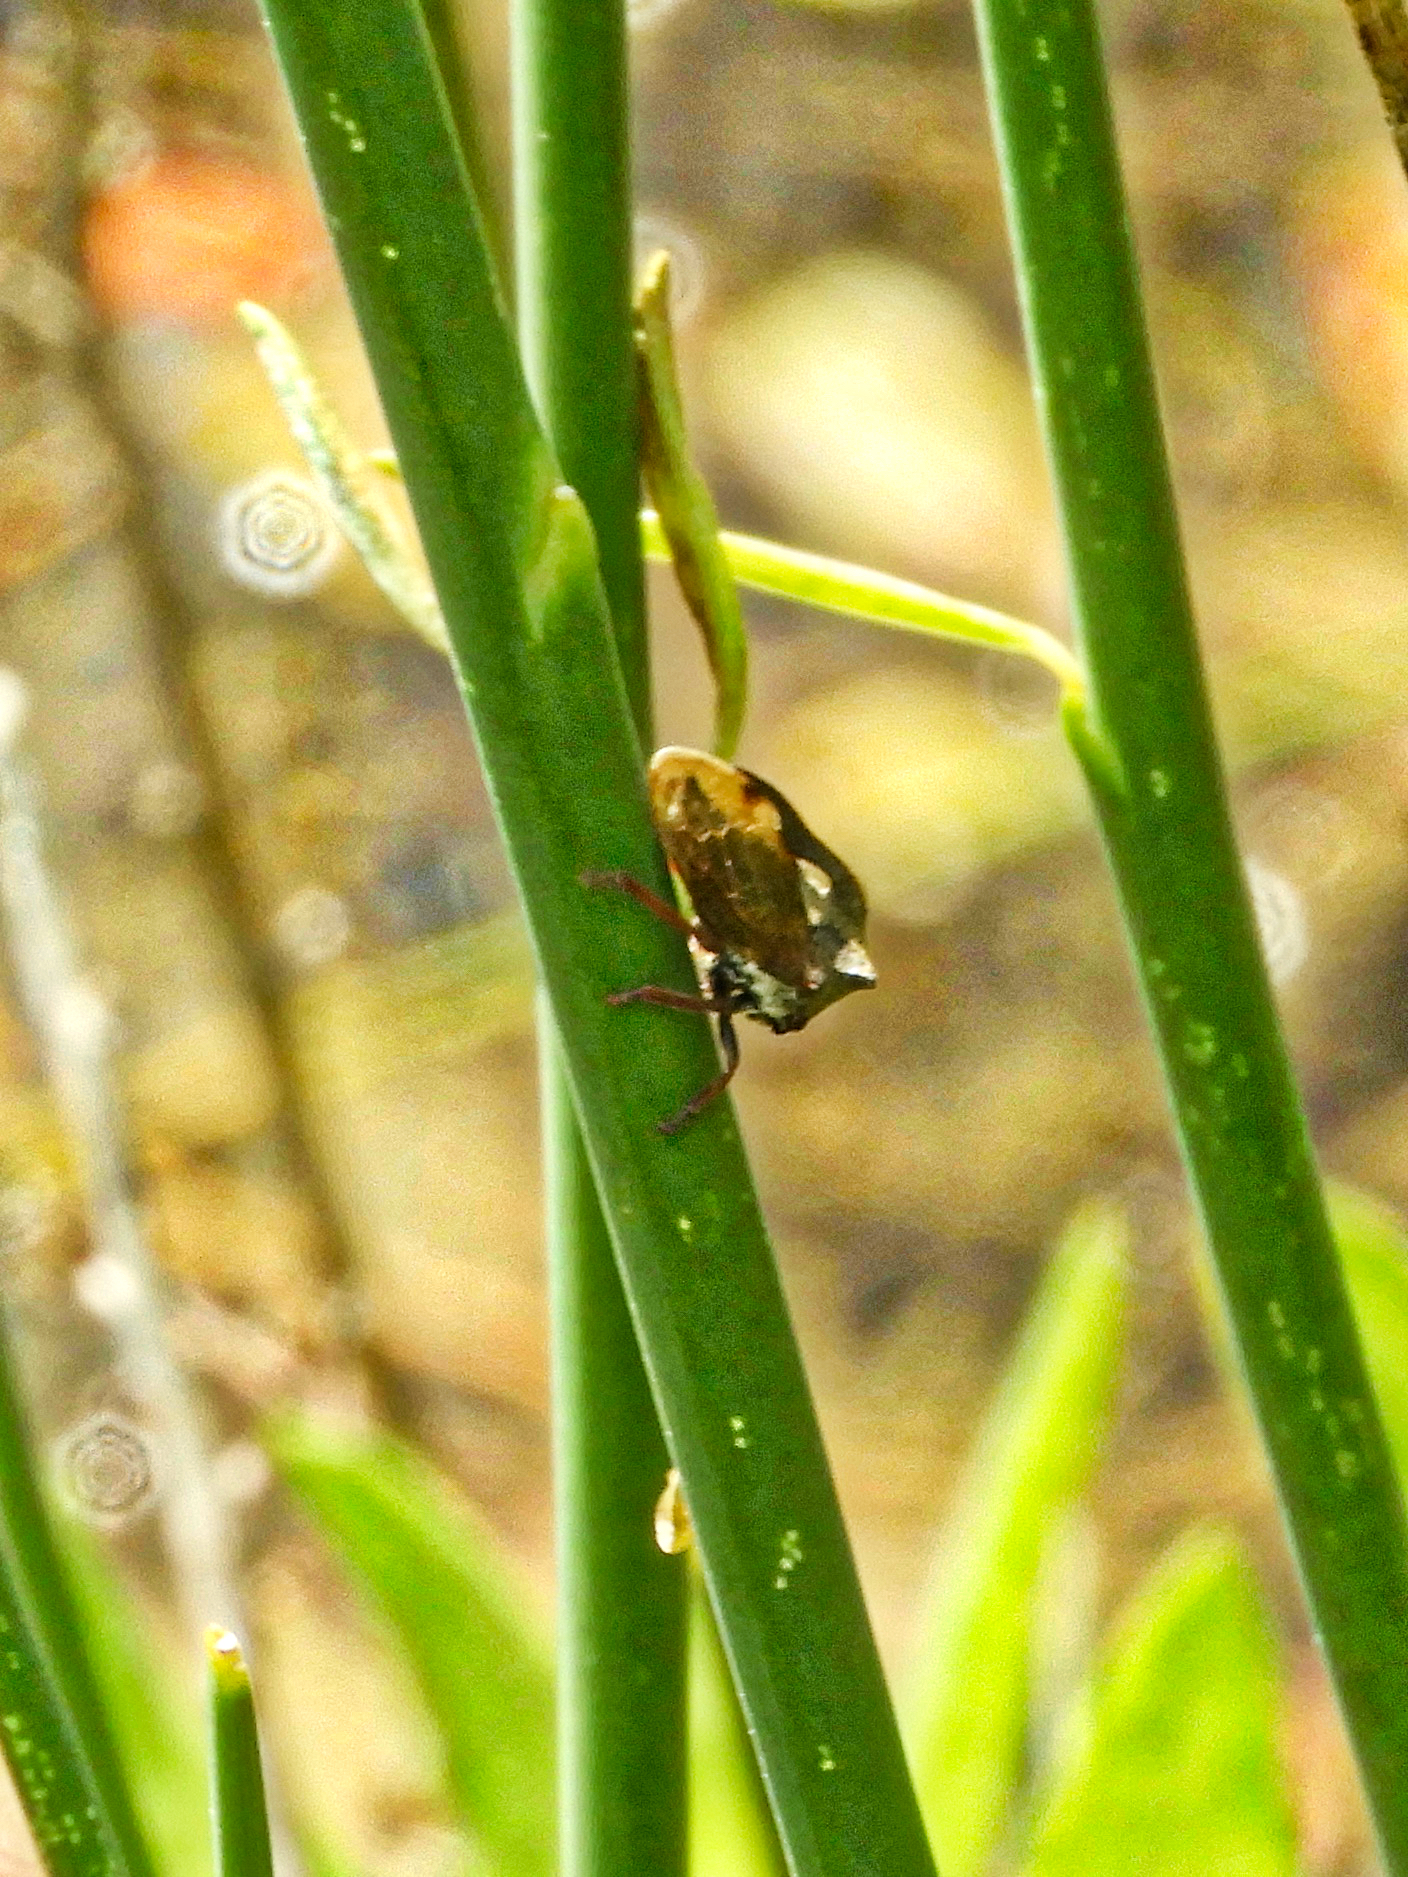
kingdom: Animalia
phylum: Arthropoda
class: Insecta
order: Hemiptera
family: Membracidae
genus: Centrotus
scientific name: Centrotus cornuta
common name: Treehopper
